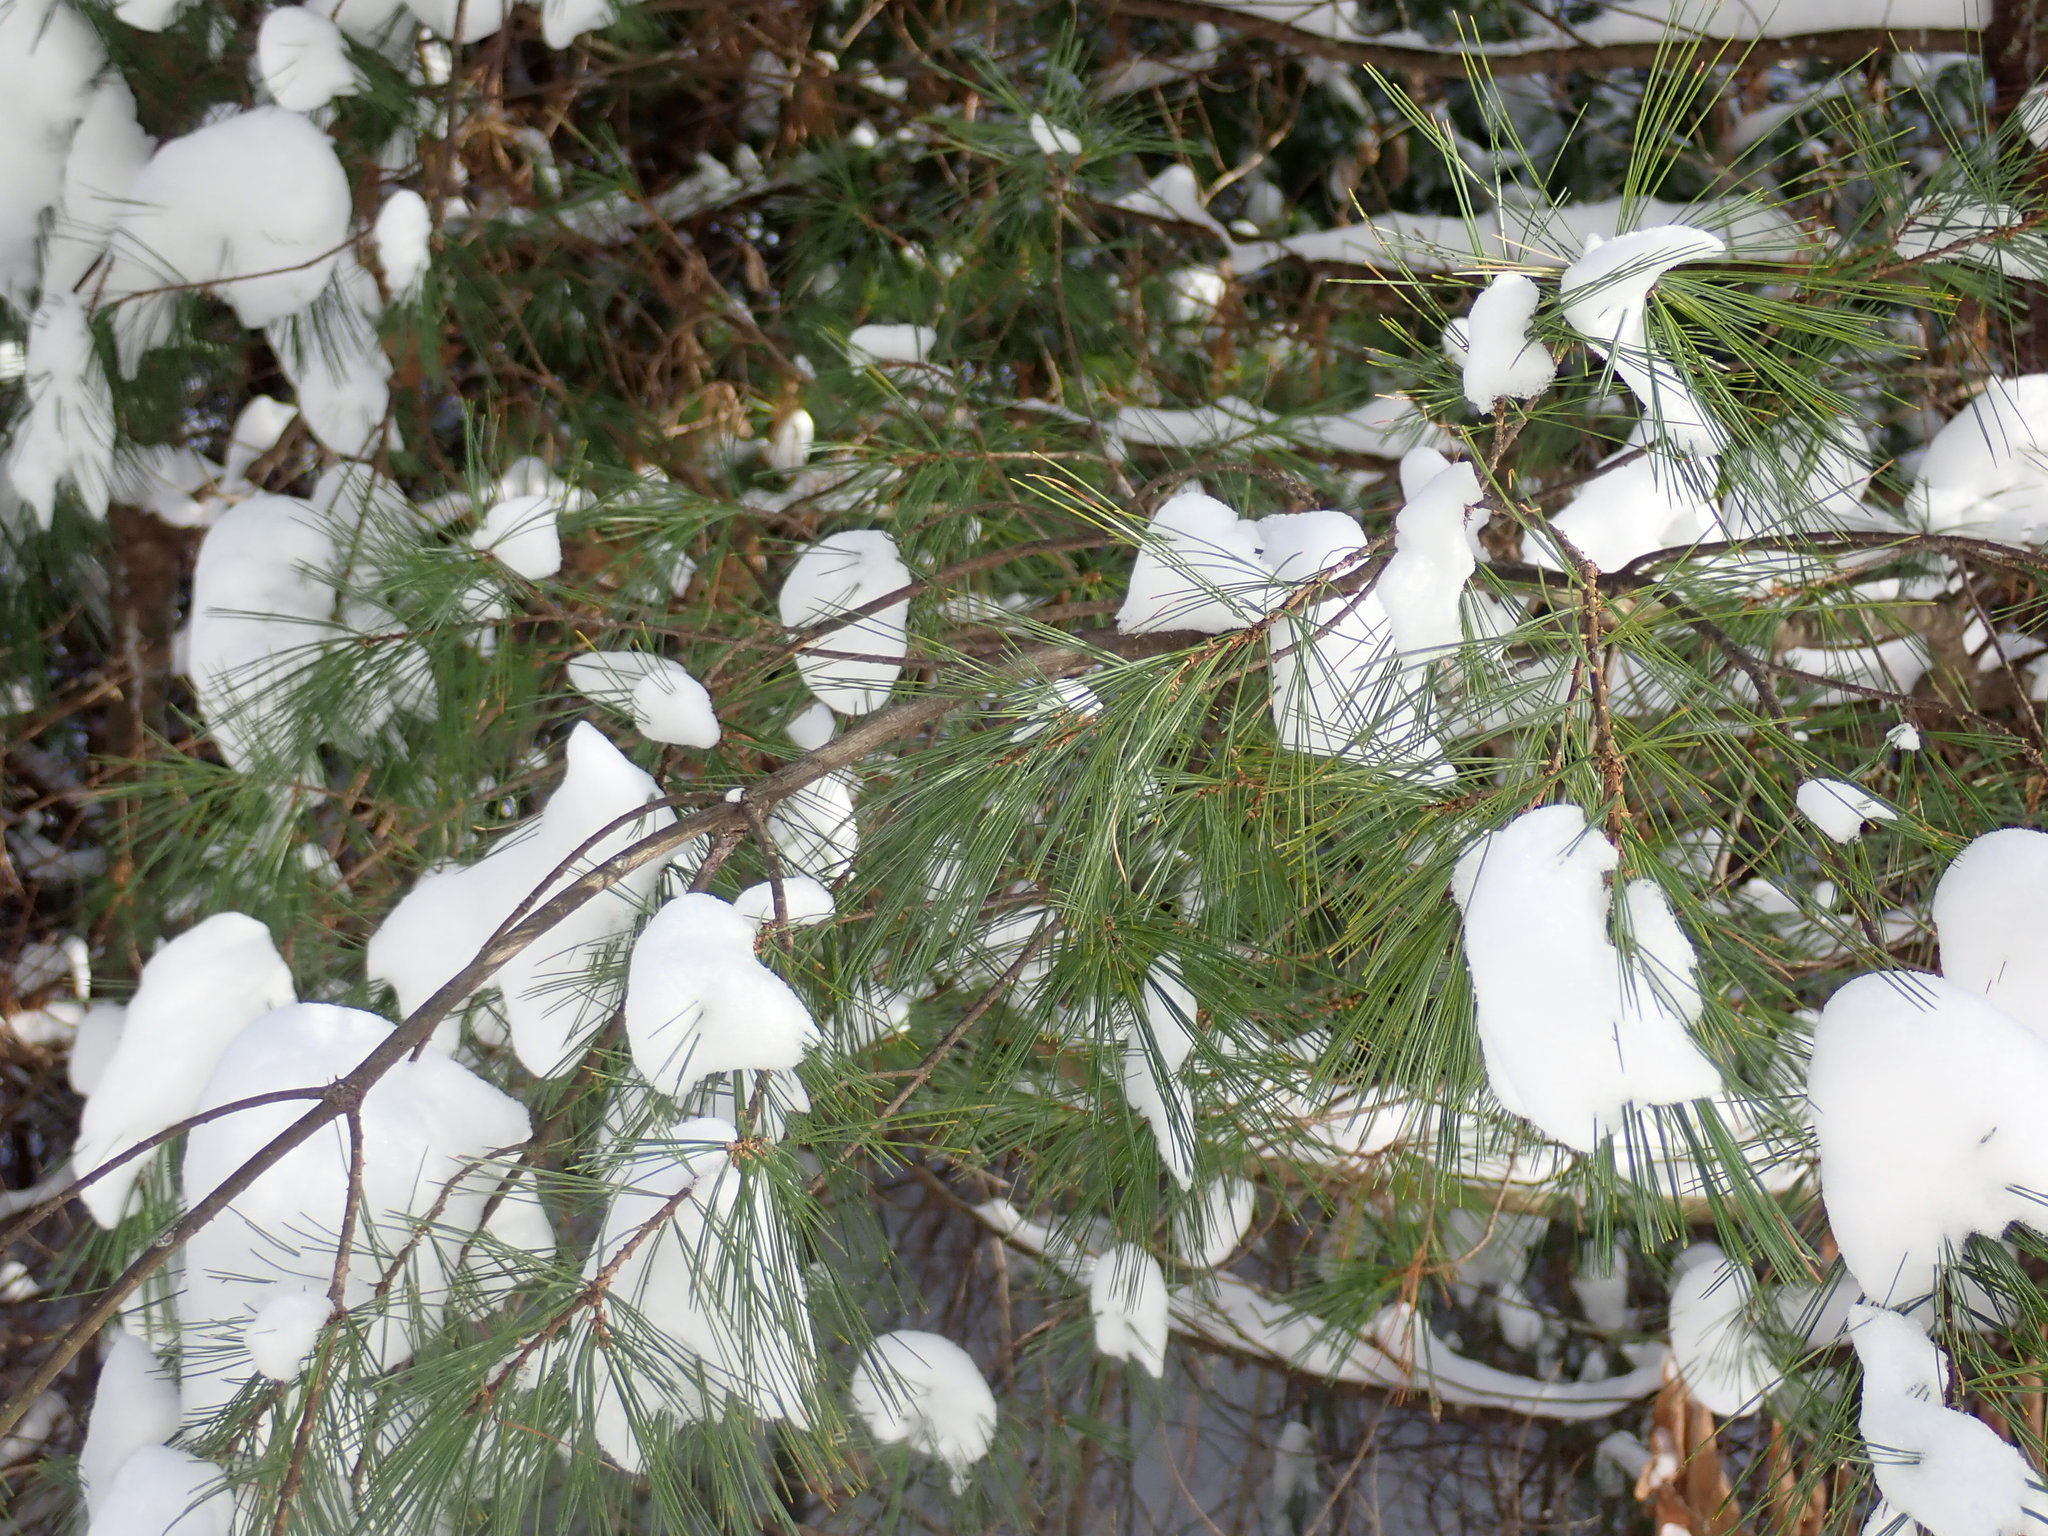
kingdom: Plantae
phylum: Tracheophyta
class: Pinopsida
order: Pinales
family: Pinaceae
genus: Pinus
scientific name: Pinus strobus
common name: Weymouth pine
